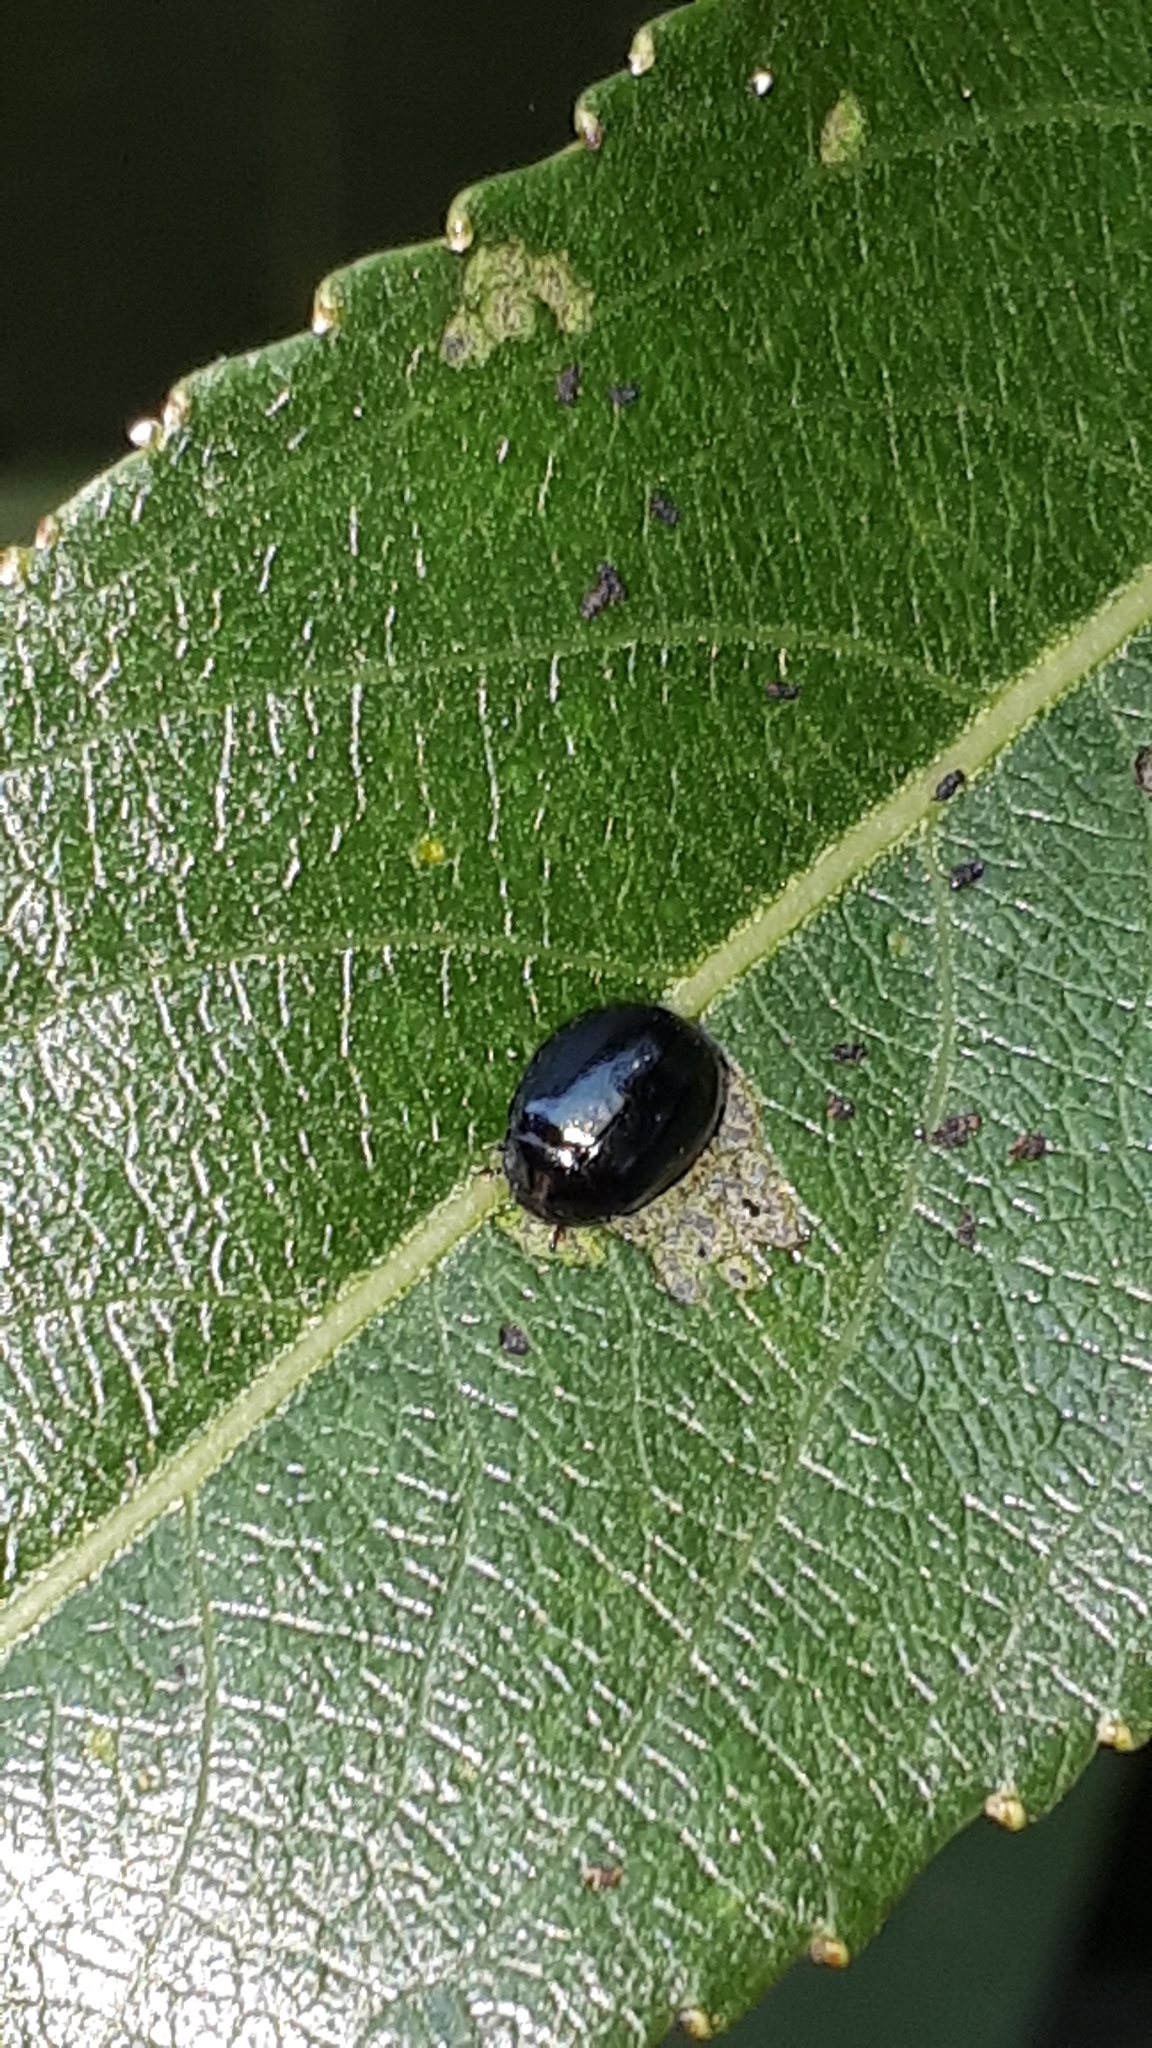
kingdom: Animalia
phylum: Arthropoda
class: Insecta
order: Coleoptera
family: Chrysomelidae
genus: Plagiodera
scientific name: Plagiodera versicolora
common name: Imported willow leaf beetle
